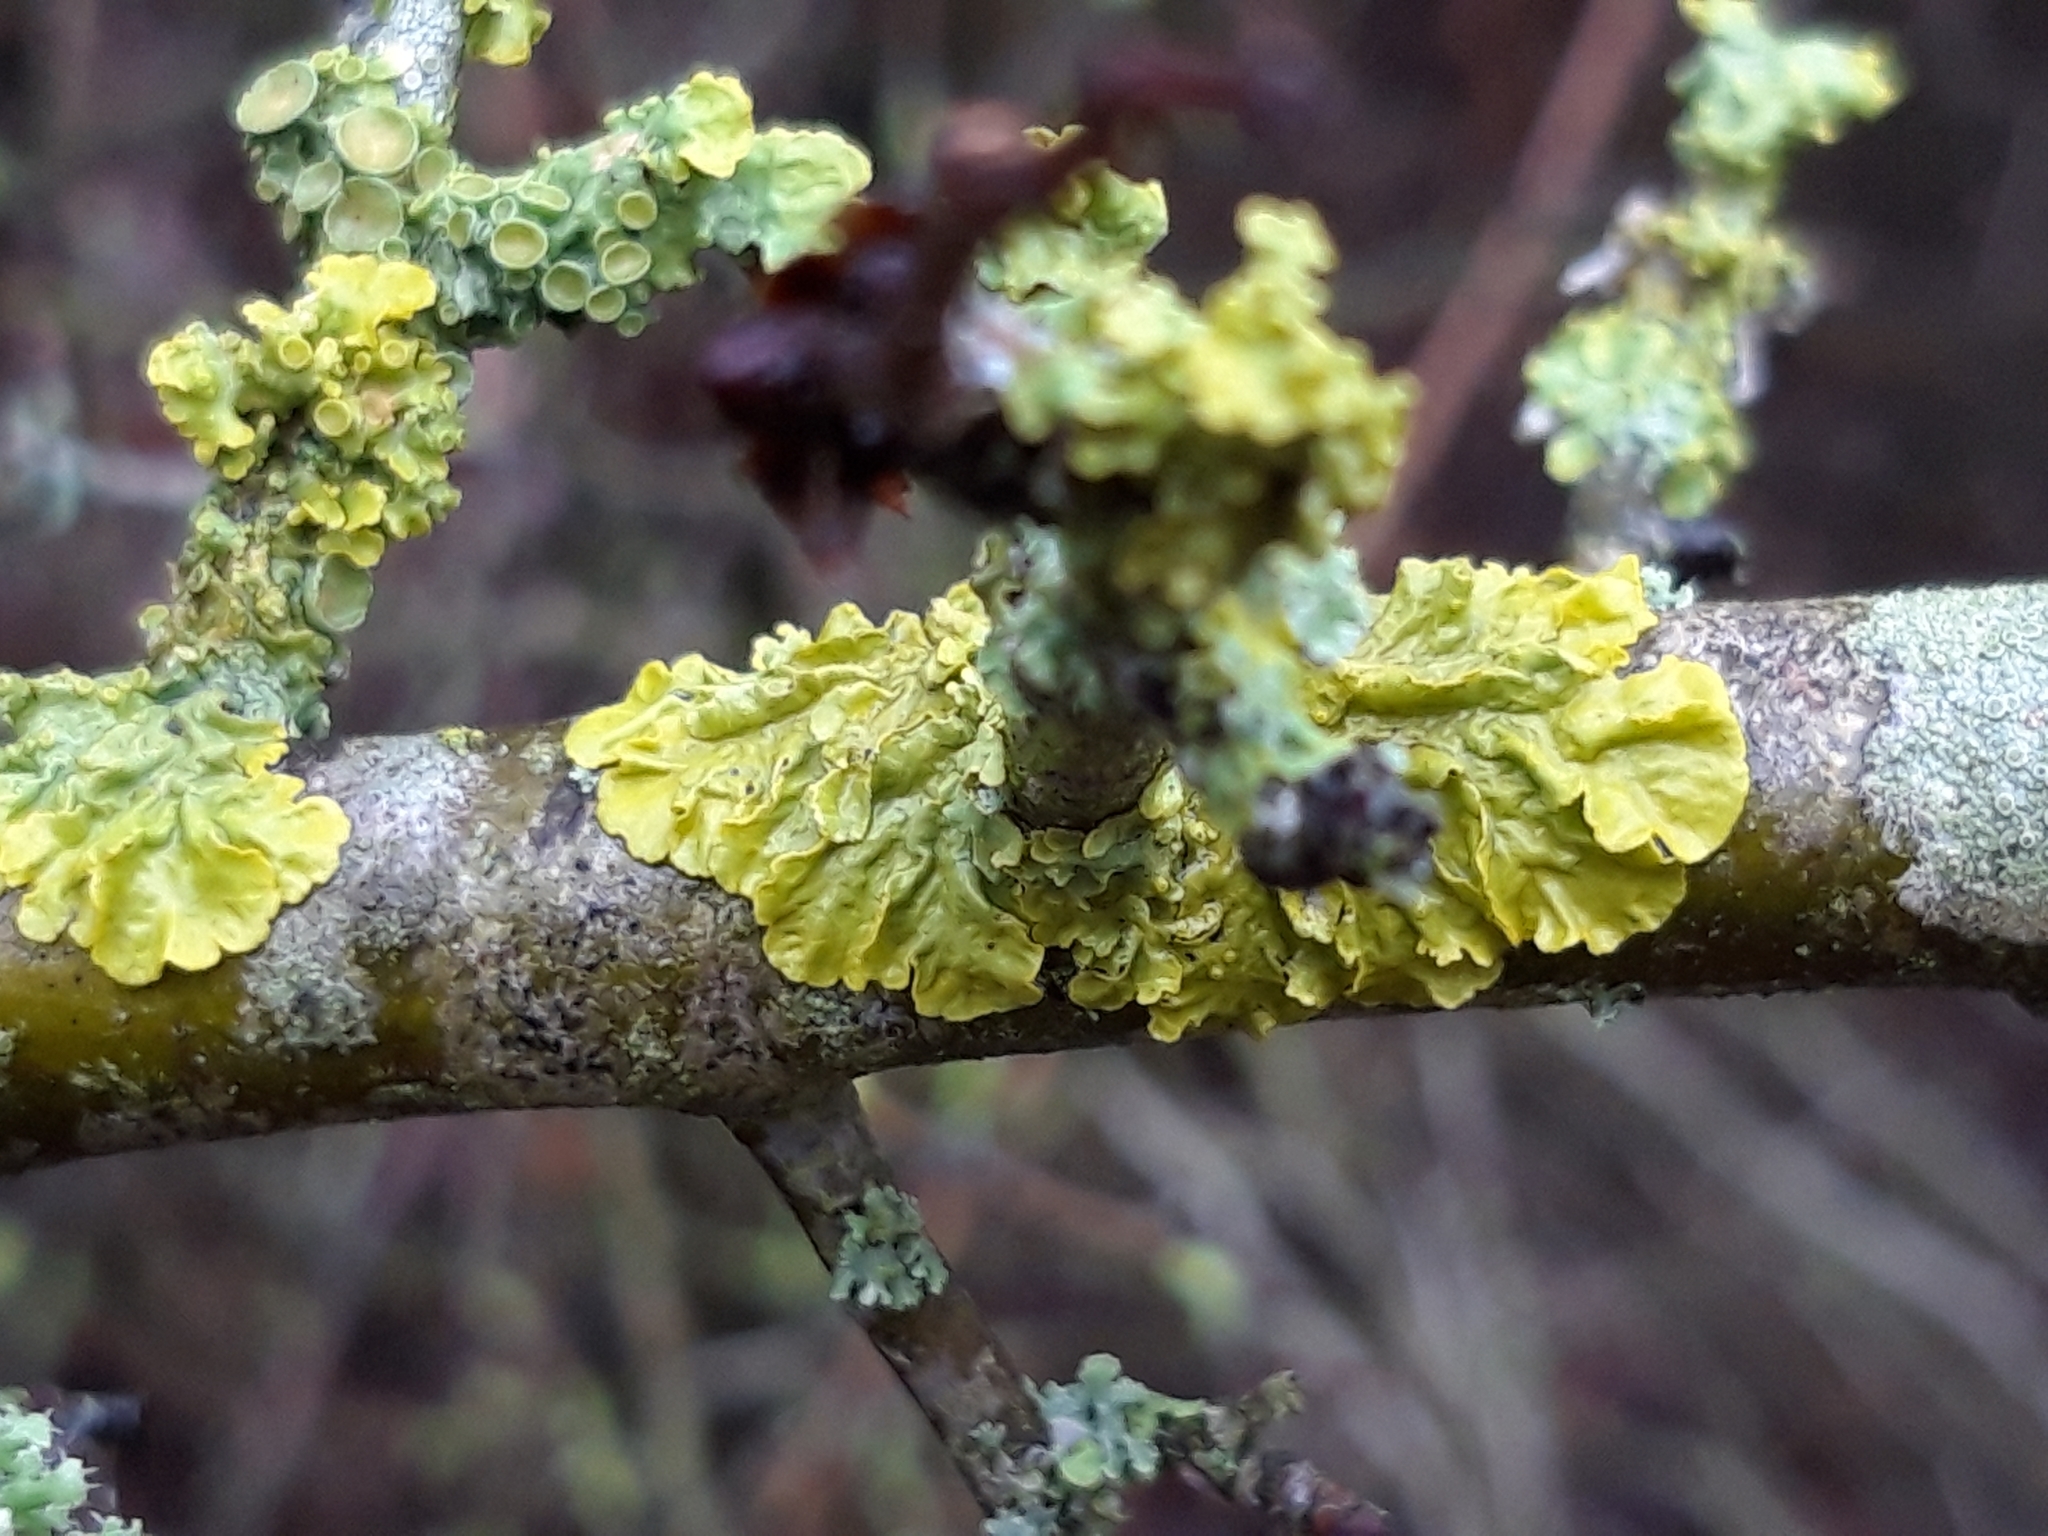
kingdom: Fungi
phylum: Ascomycota
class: Lecanoromycetes
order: Teloschistales
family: Teloschistaceae
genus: Xanthoria
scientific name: Xanthoria parietina
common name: Common orange lichen
